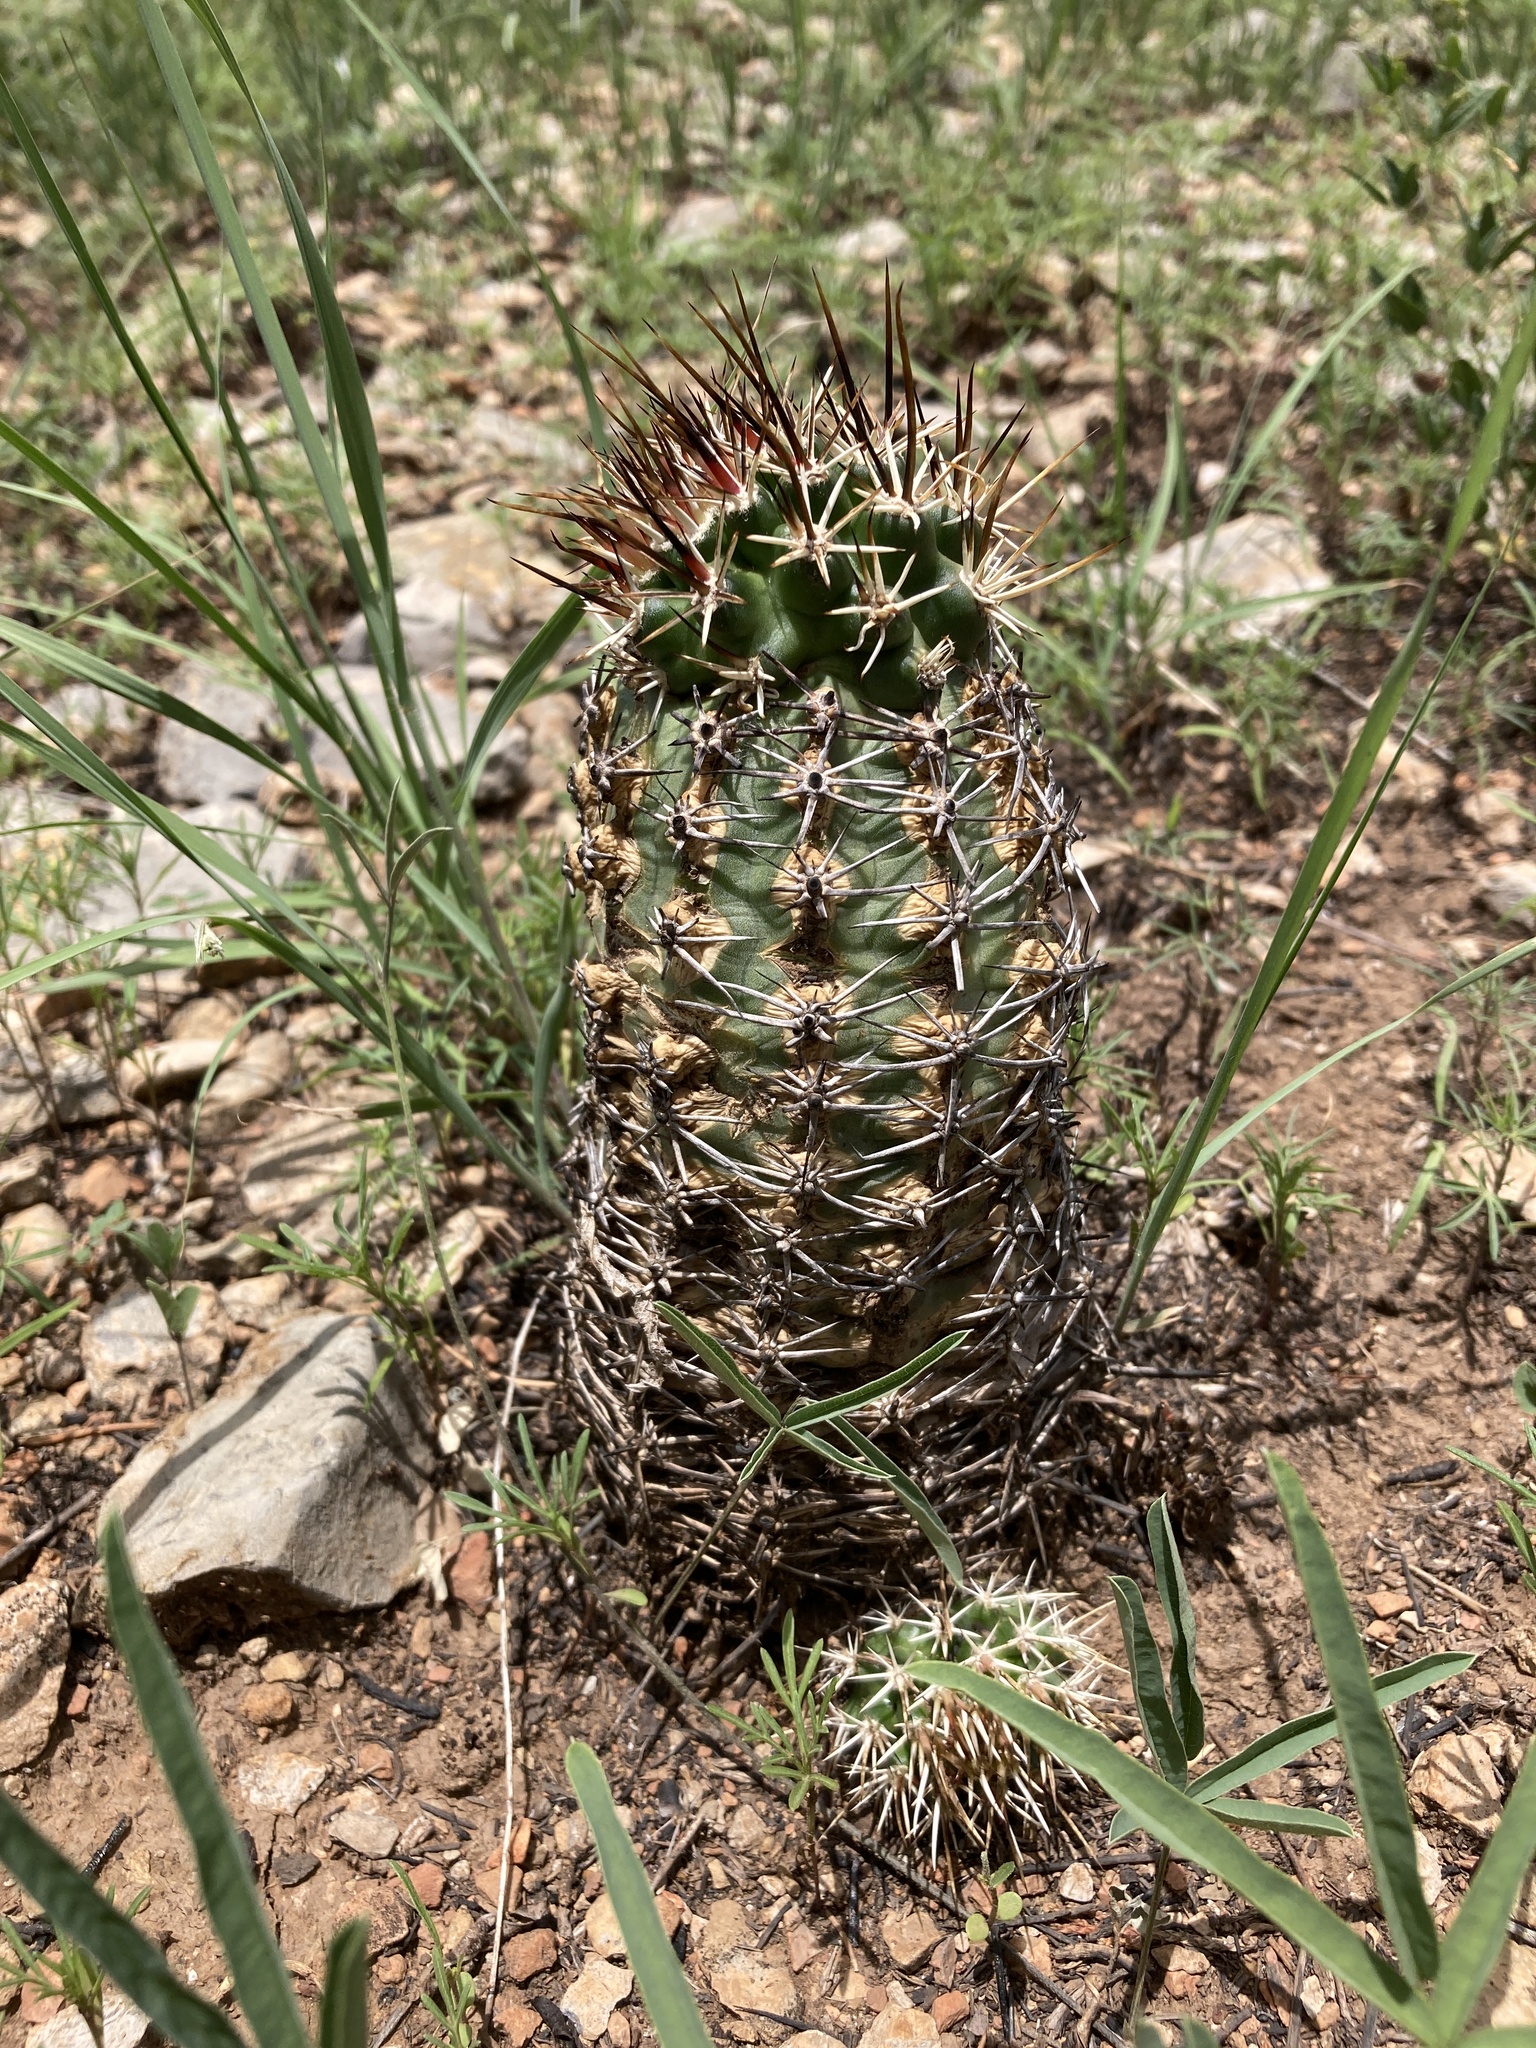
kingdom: Plantae
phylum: Tracheophyta
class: Magnoliopsida
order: Caryophyllales
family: Cactaceae
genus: Echinocereus
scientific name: Echinocereus fendleri
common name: Fendler's hedgehog cactus
